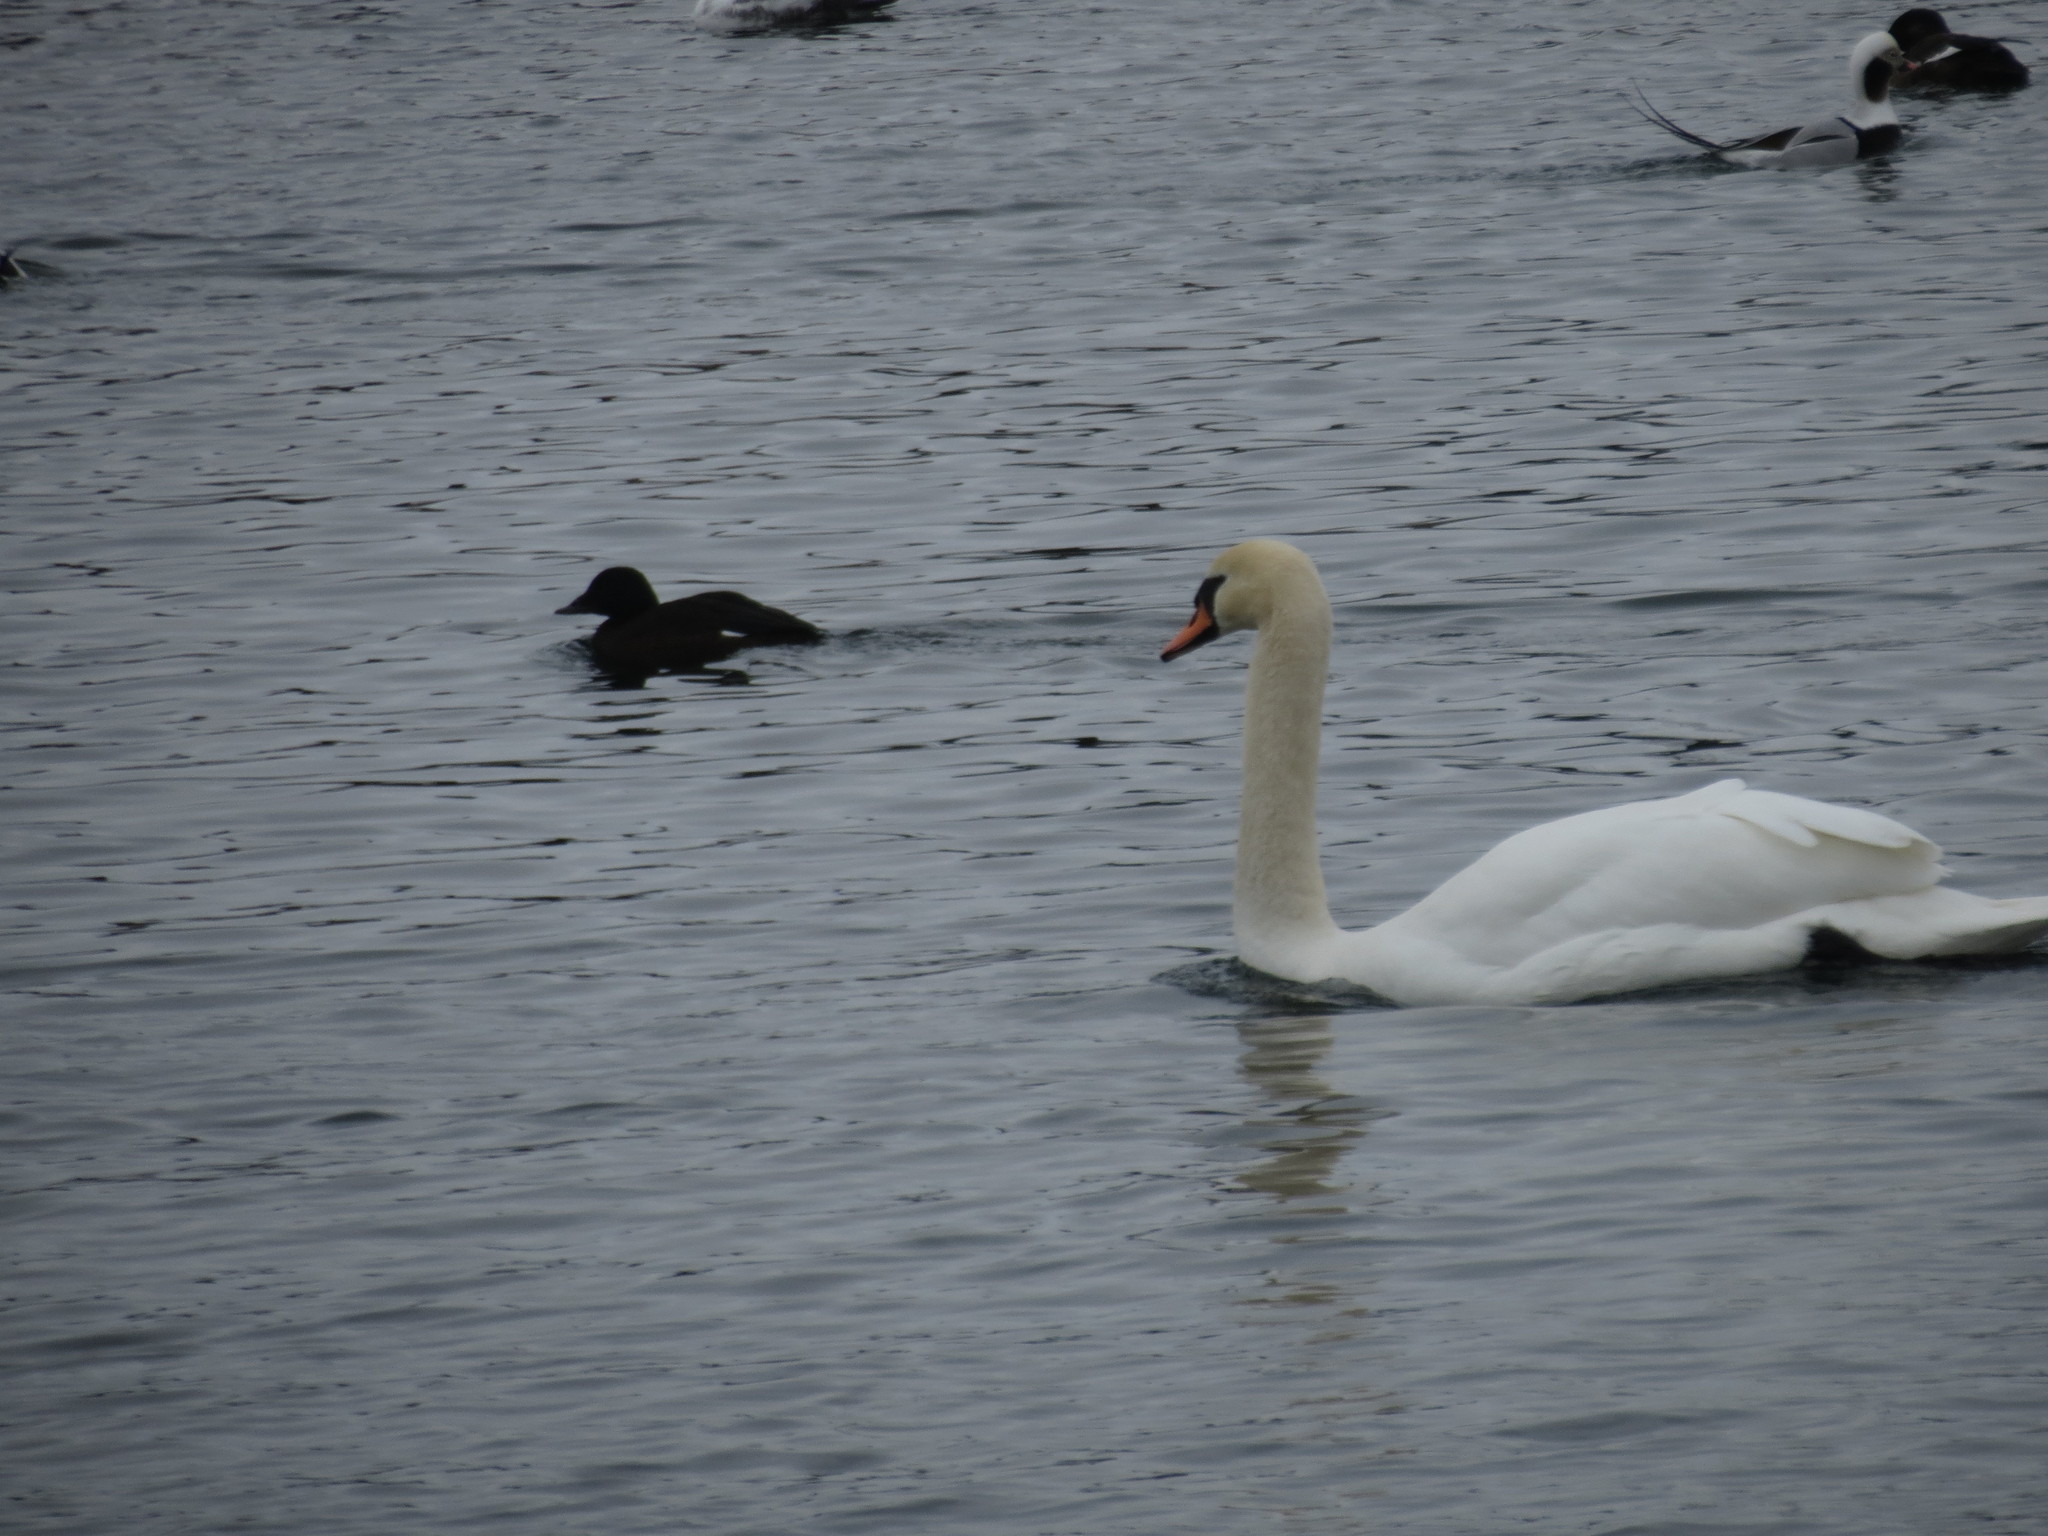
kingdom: Animalia
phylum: Chordata
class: Aves
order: Anseriformes
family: Anatidae
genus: Cygnus
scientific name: Cygnus olor
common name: Mute swan
